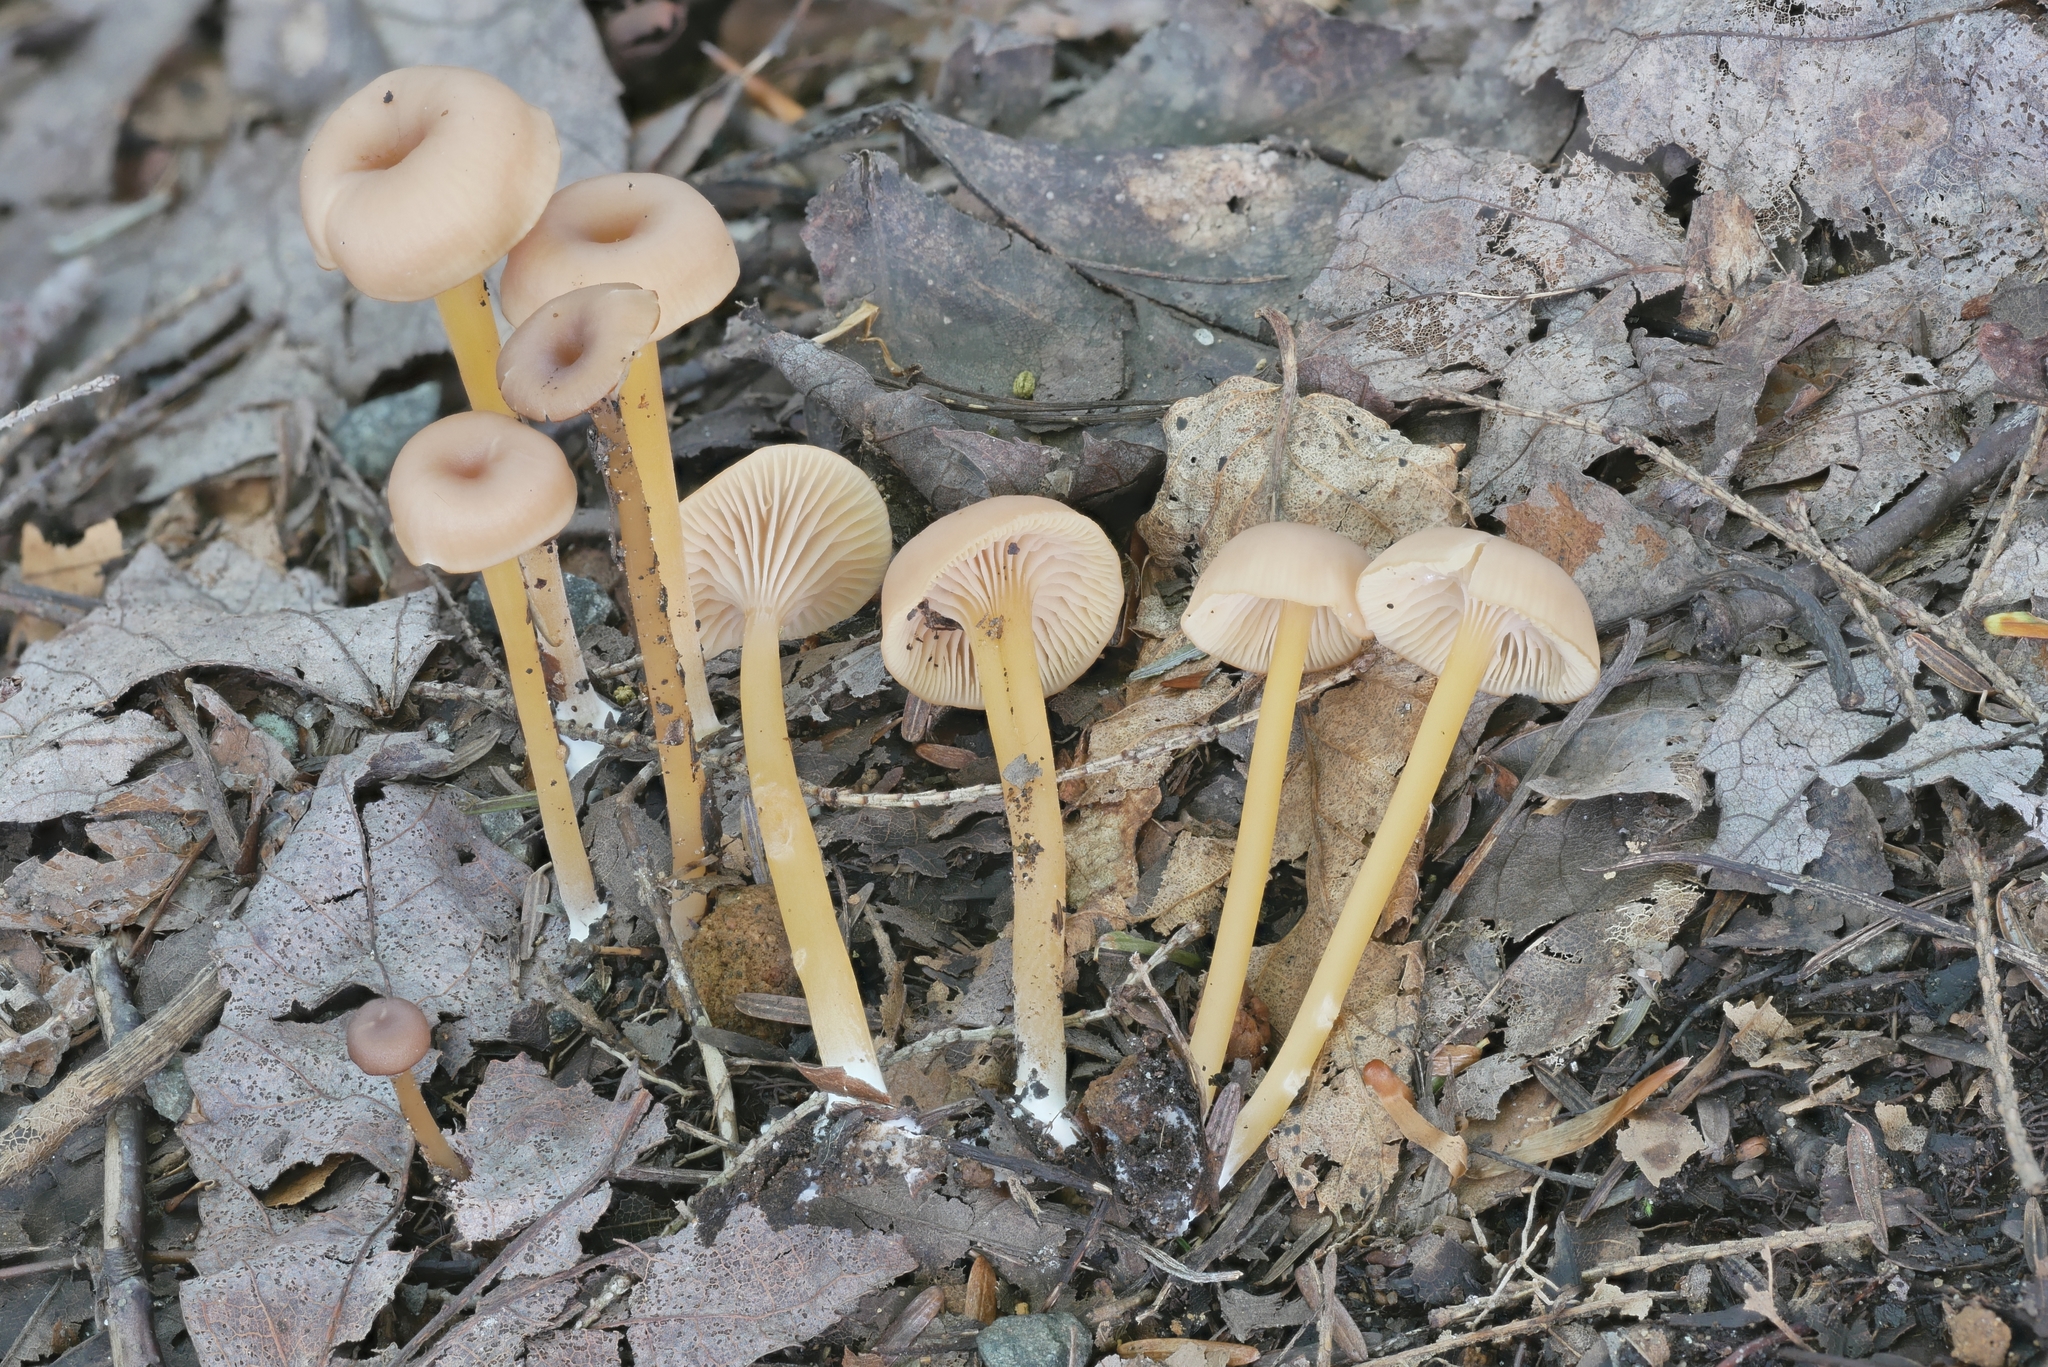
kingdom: Fungi
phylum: Basidiomycota
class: Agaricomycetes
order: Agaricales
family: Entolomataceae
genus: Entoloma
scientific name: Entoloma unicolor
